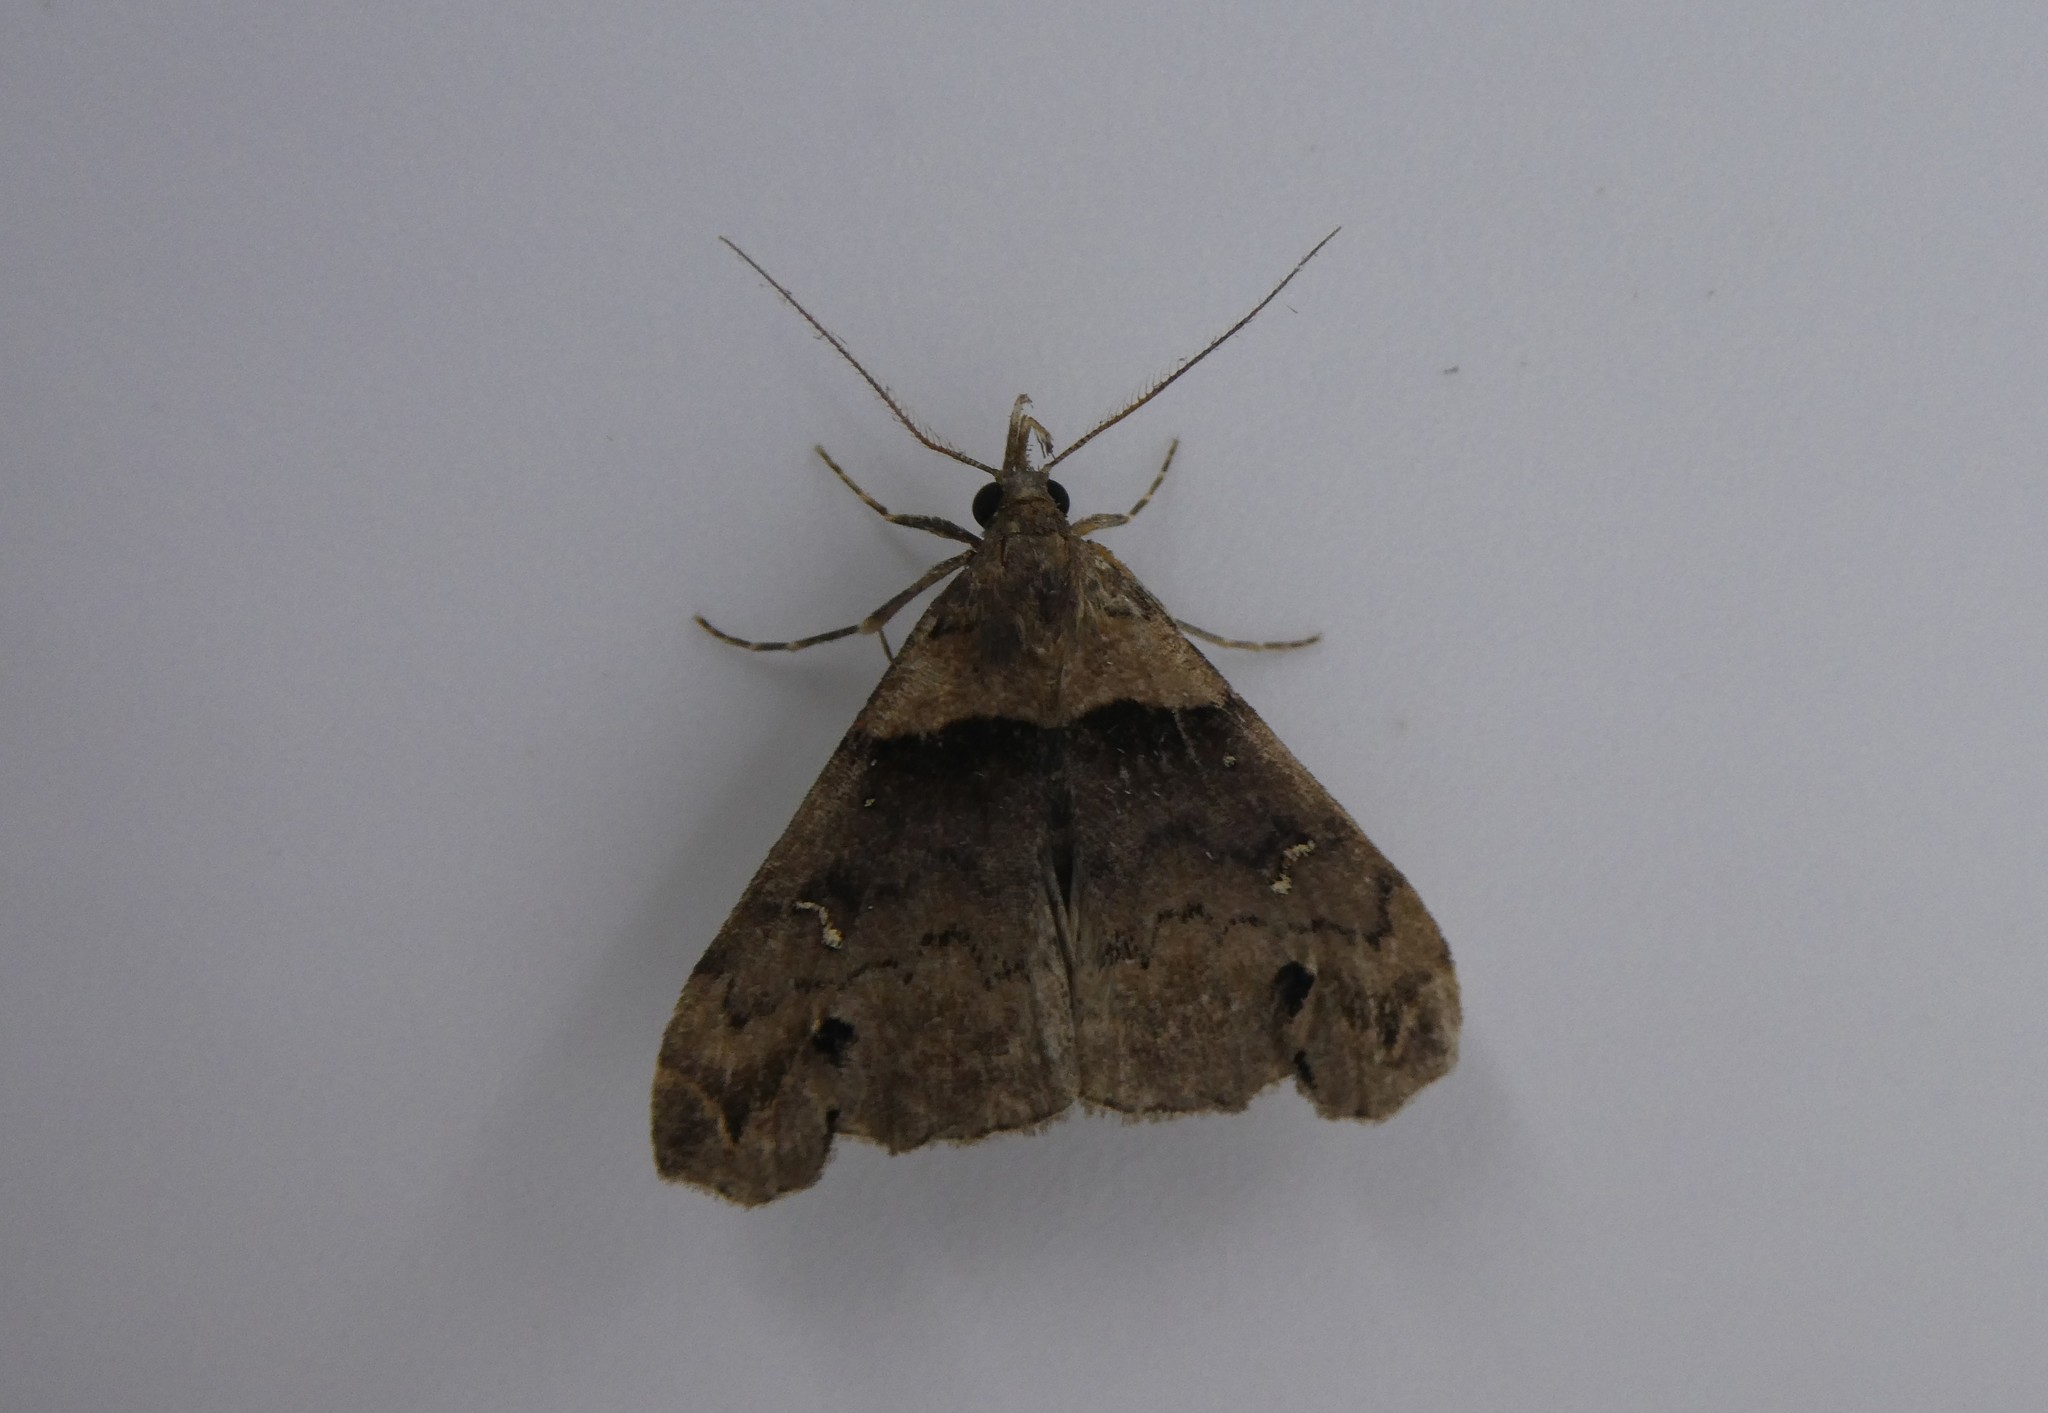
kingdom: Animalia
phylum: Arthropoda
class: Insecta
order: Lepidoptera
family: Erebidae
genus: Lascoria
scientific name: Lascoria ambigualis
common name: Ambiguous moth
